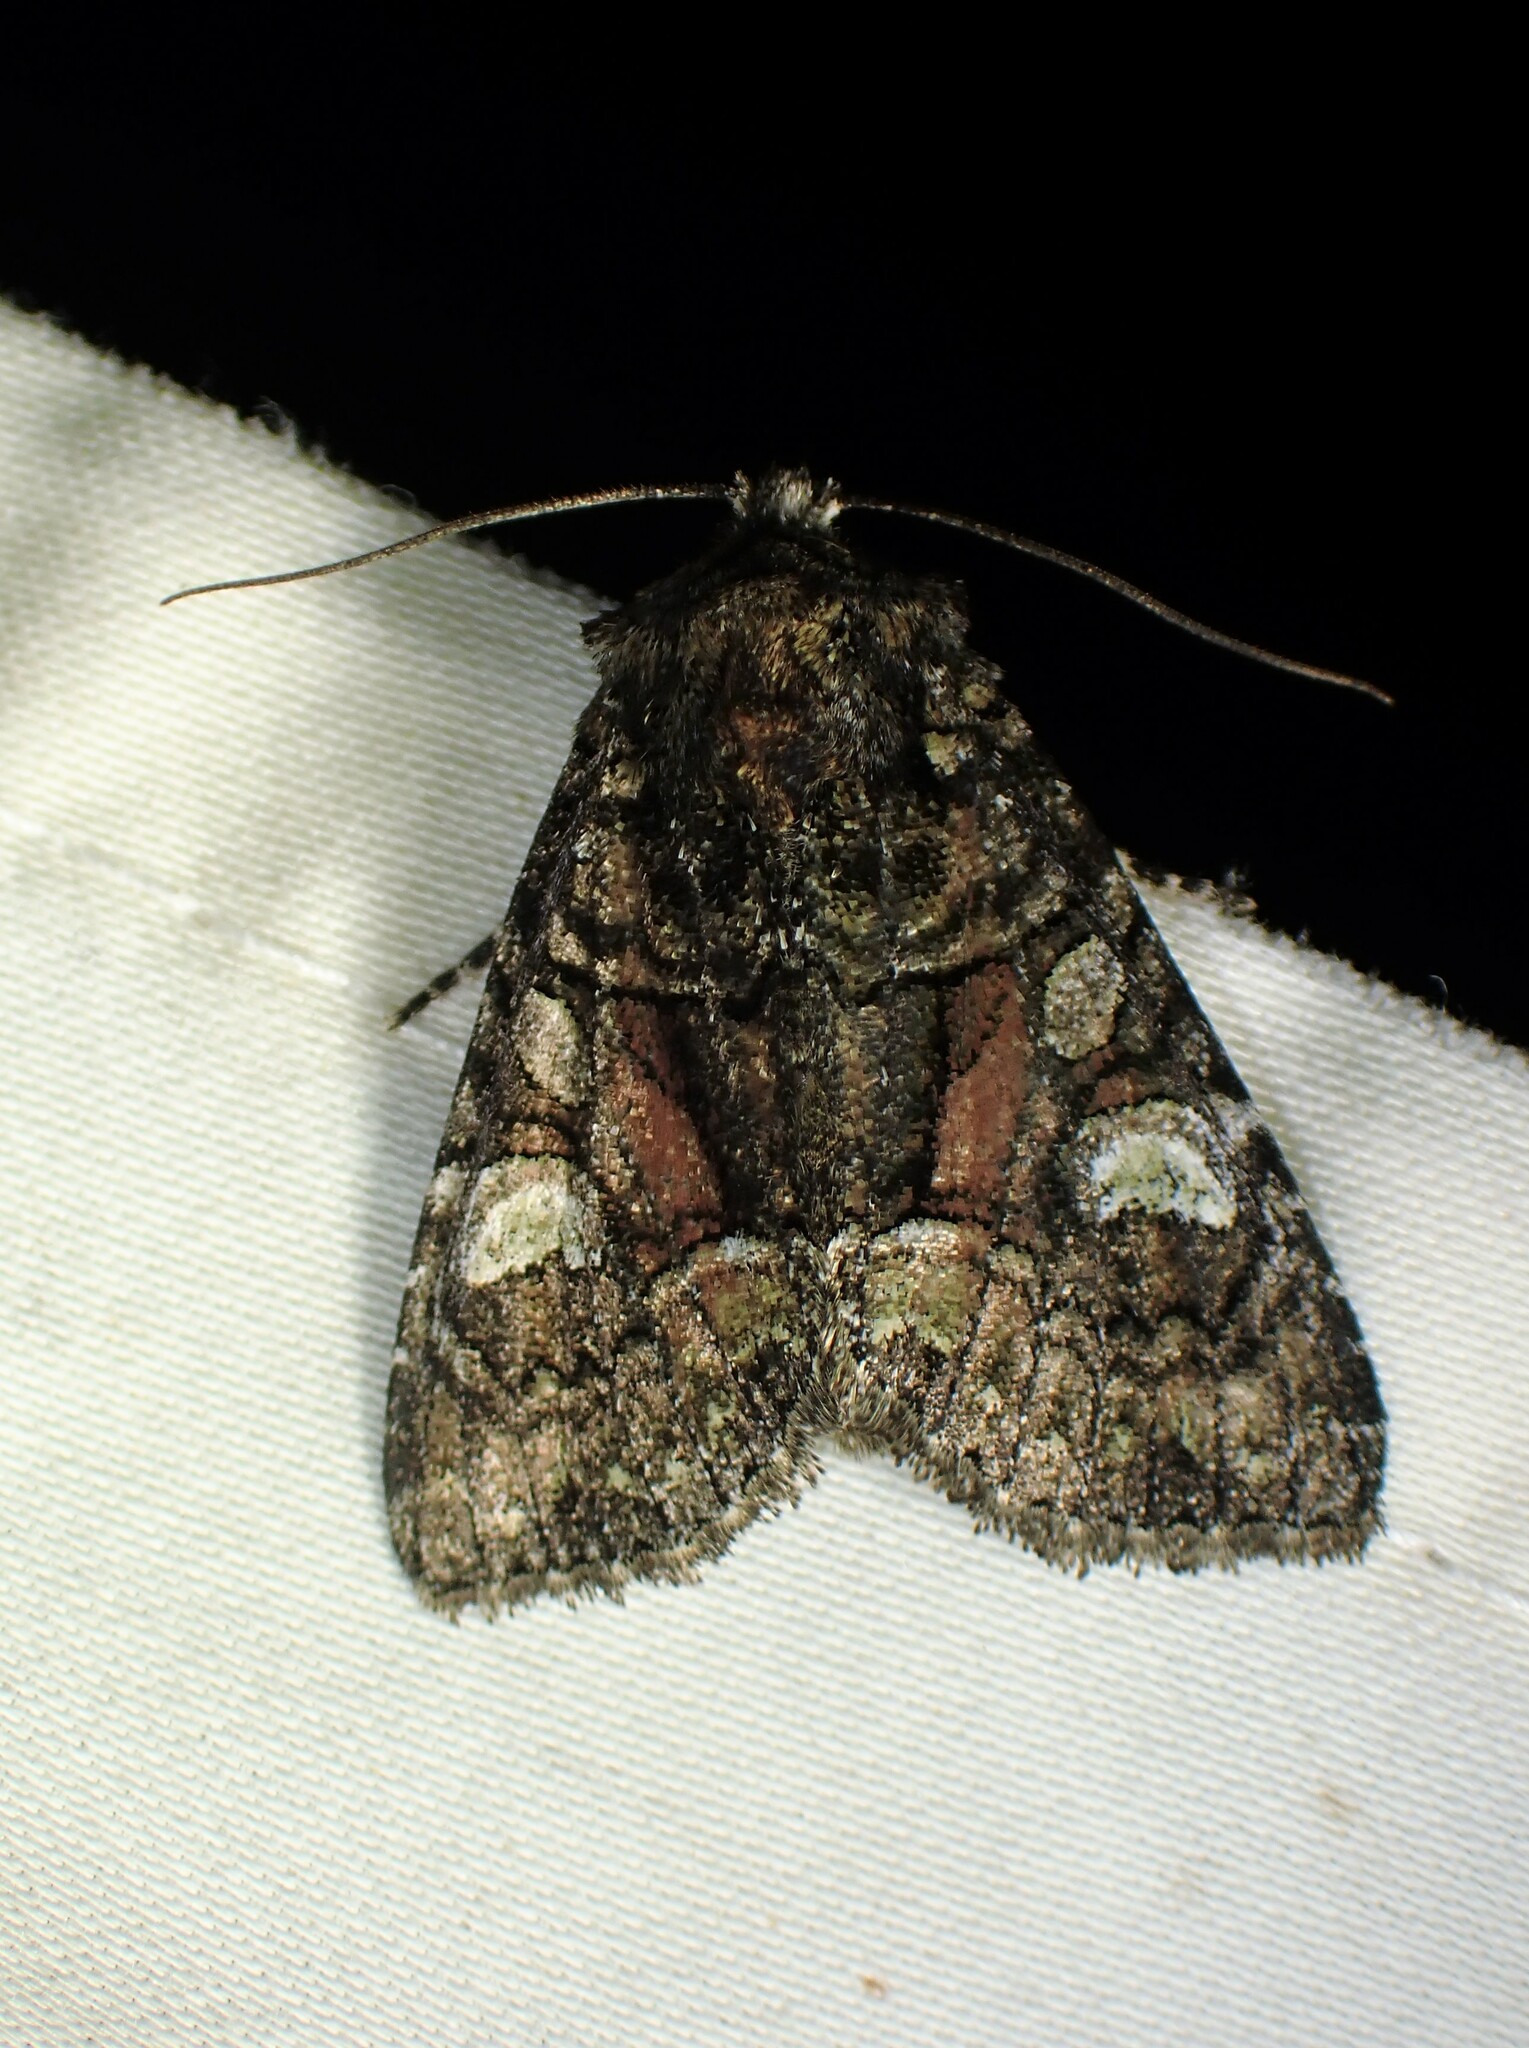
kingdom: Animalia
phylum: Arthropoda
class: Insecta
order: Lepidoptera
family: Noctuidae
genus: Fishia
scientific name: Fishia illocata
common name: Wandering brocade moth
